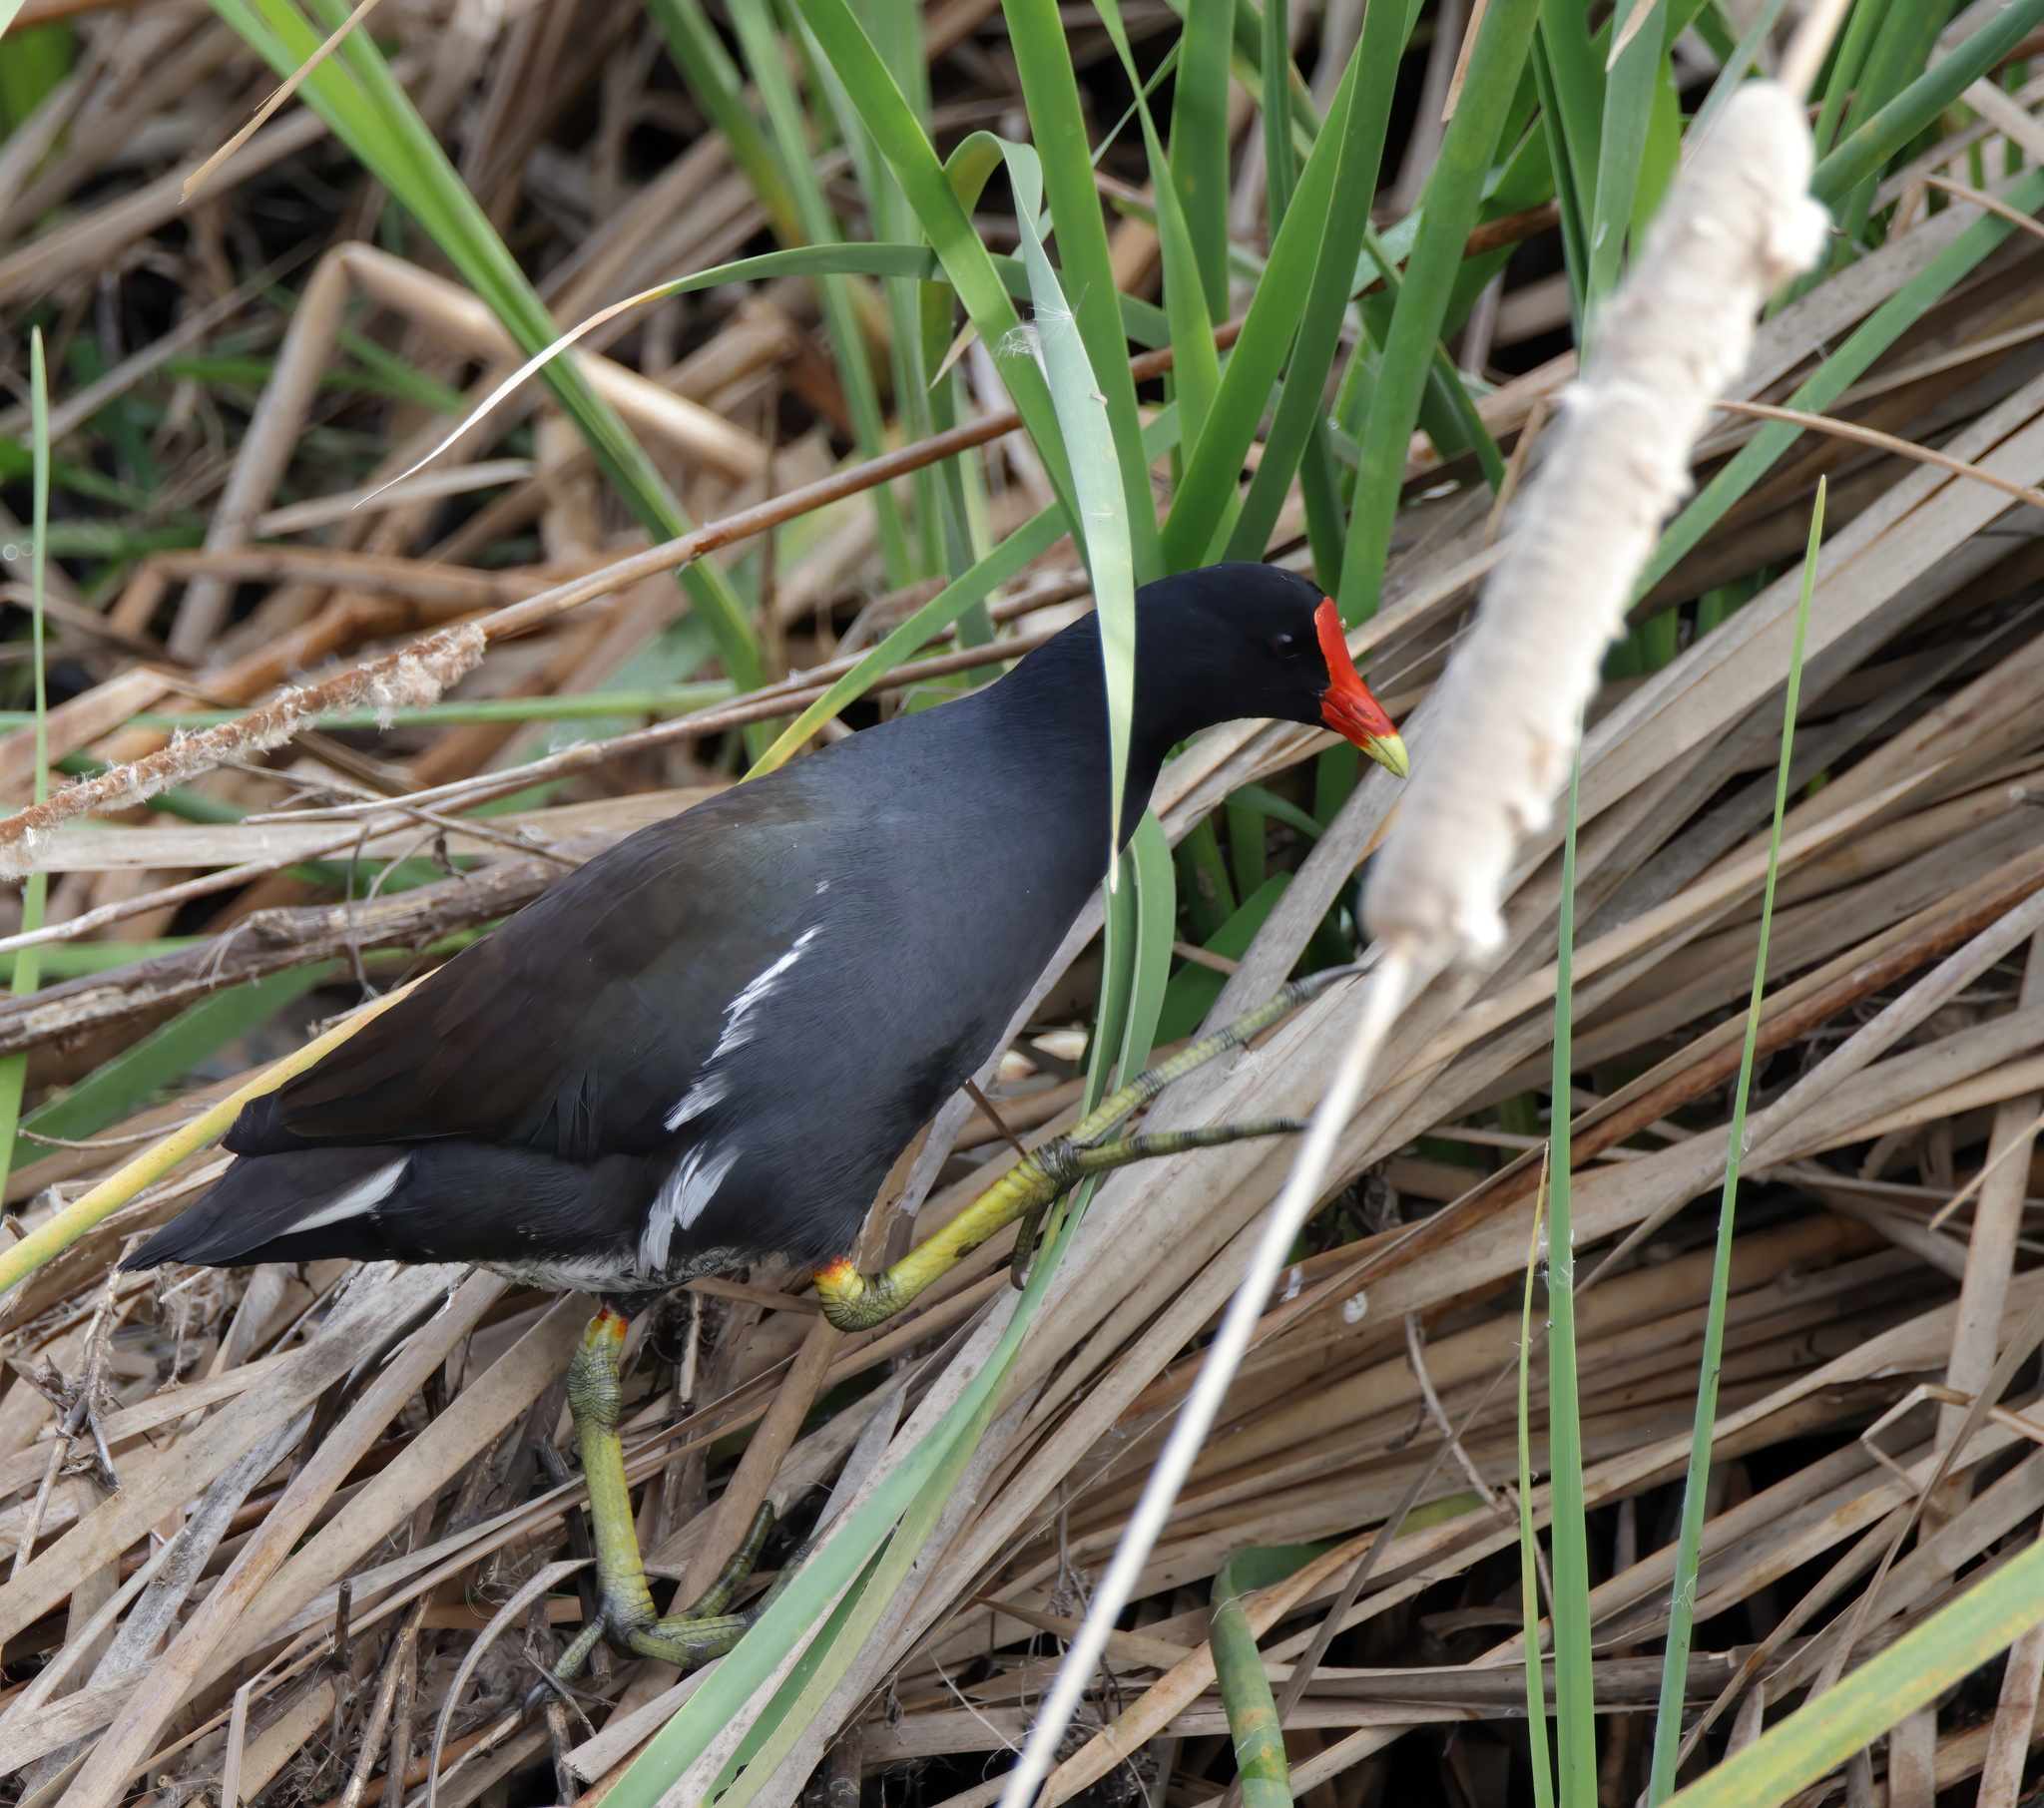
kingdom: Animalia
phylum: Chordata
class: Aves
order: Gruiformes
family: Rallidae
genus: Gallinula
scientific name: Gallinula chloropus
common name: Common moorhen
